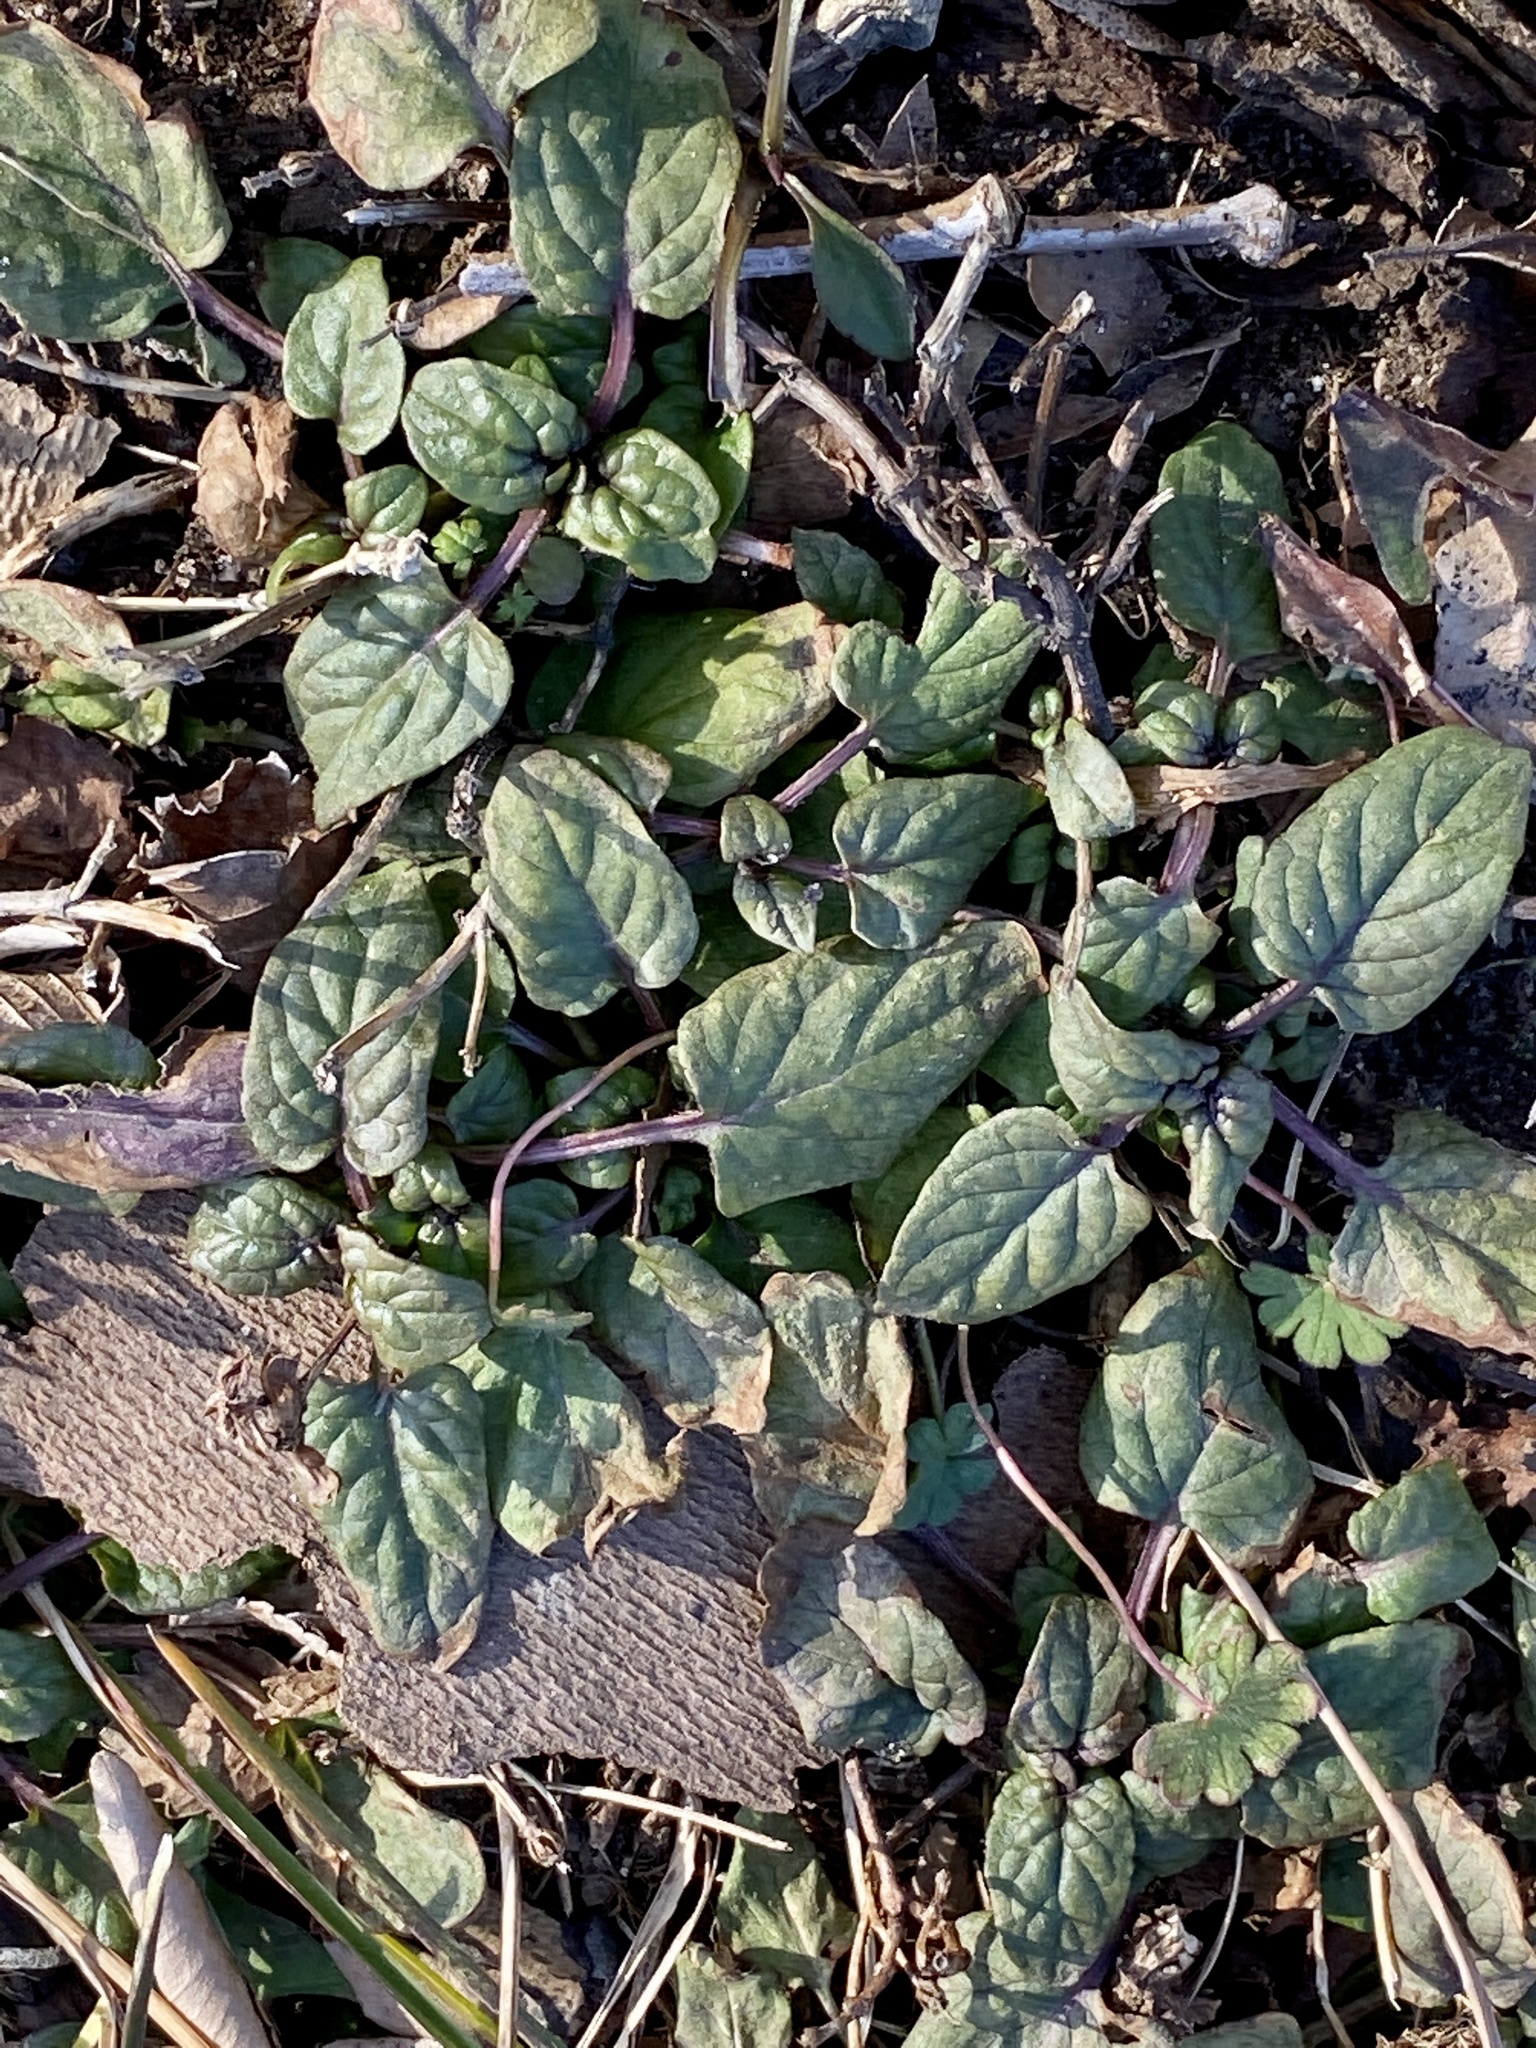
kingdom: Plantae
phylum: Tracheophyta
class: Magnoliopsida
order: Lamiales
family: Lamiaceae
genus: Prunella
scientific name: Prunella vulgaris
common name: Heal-all
